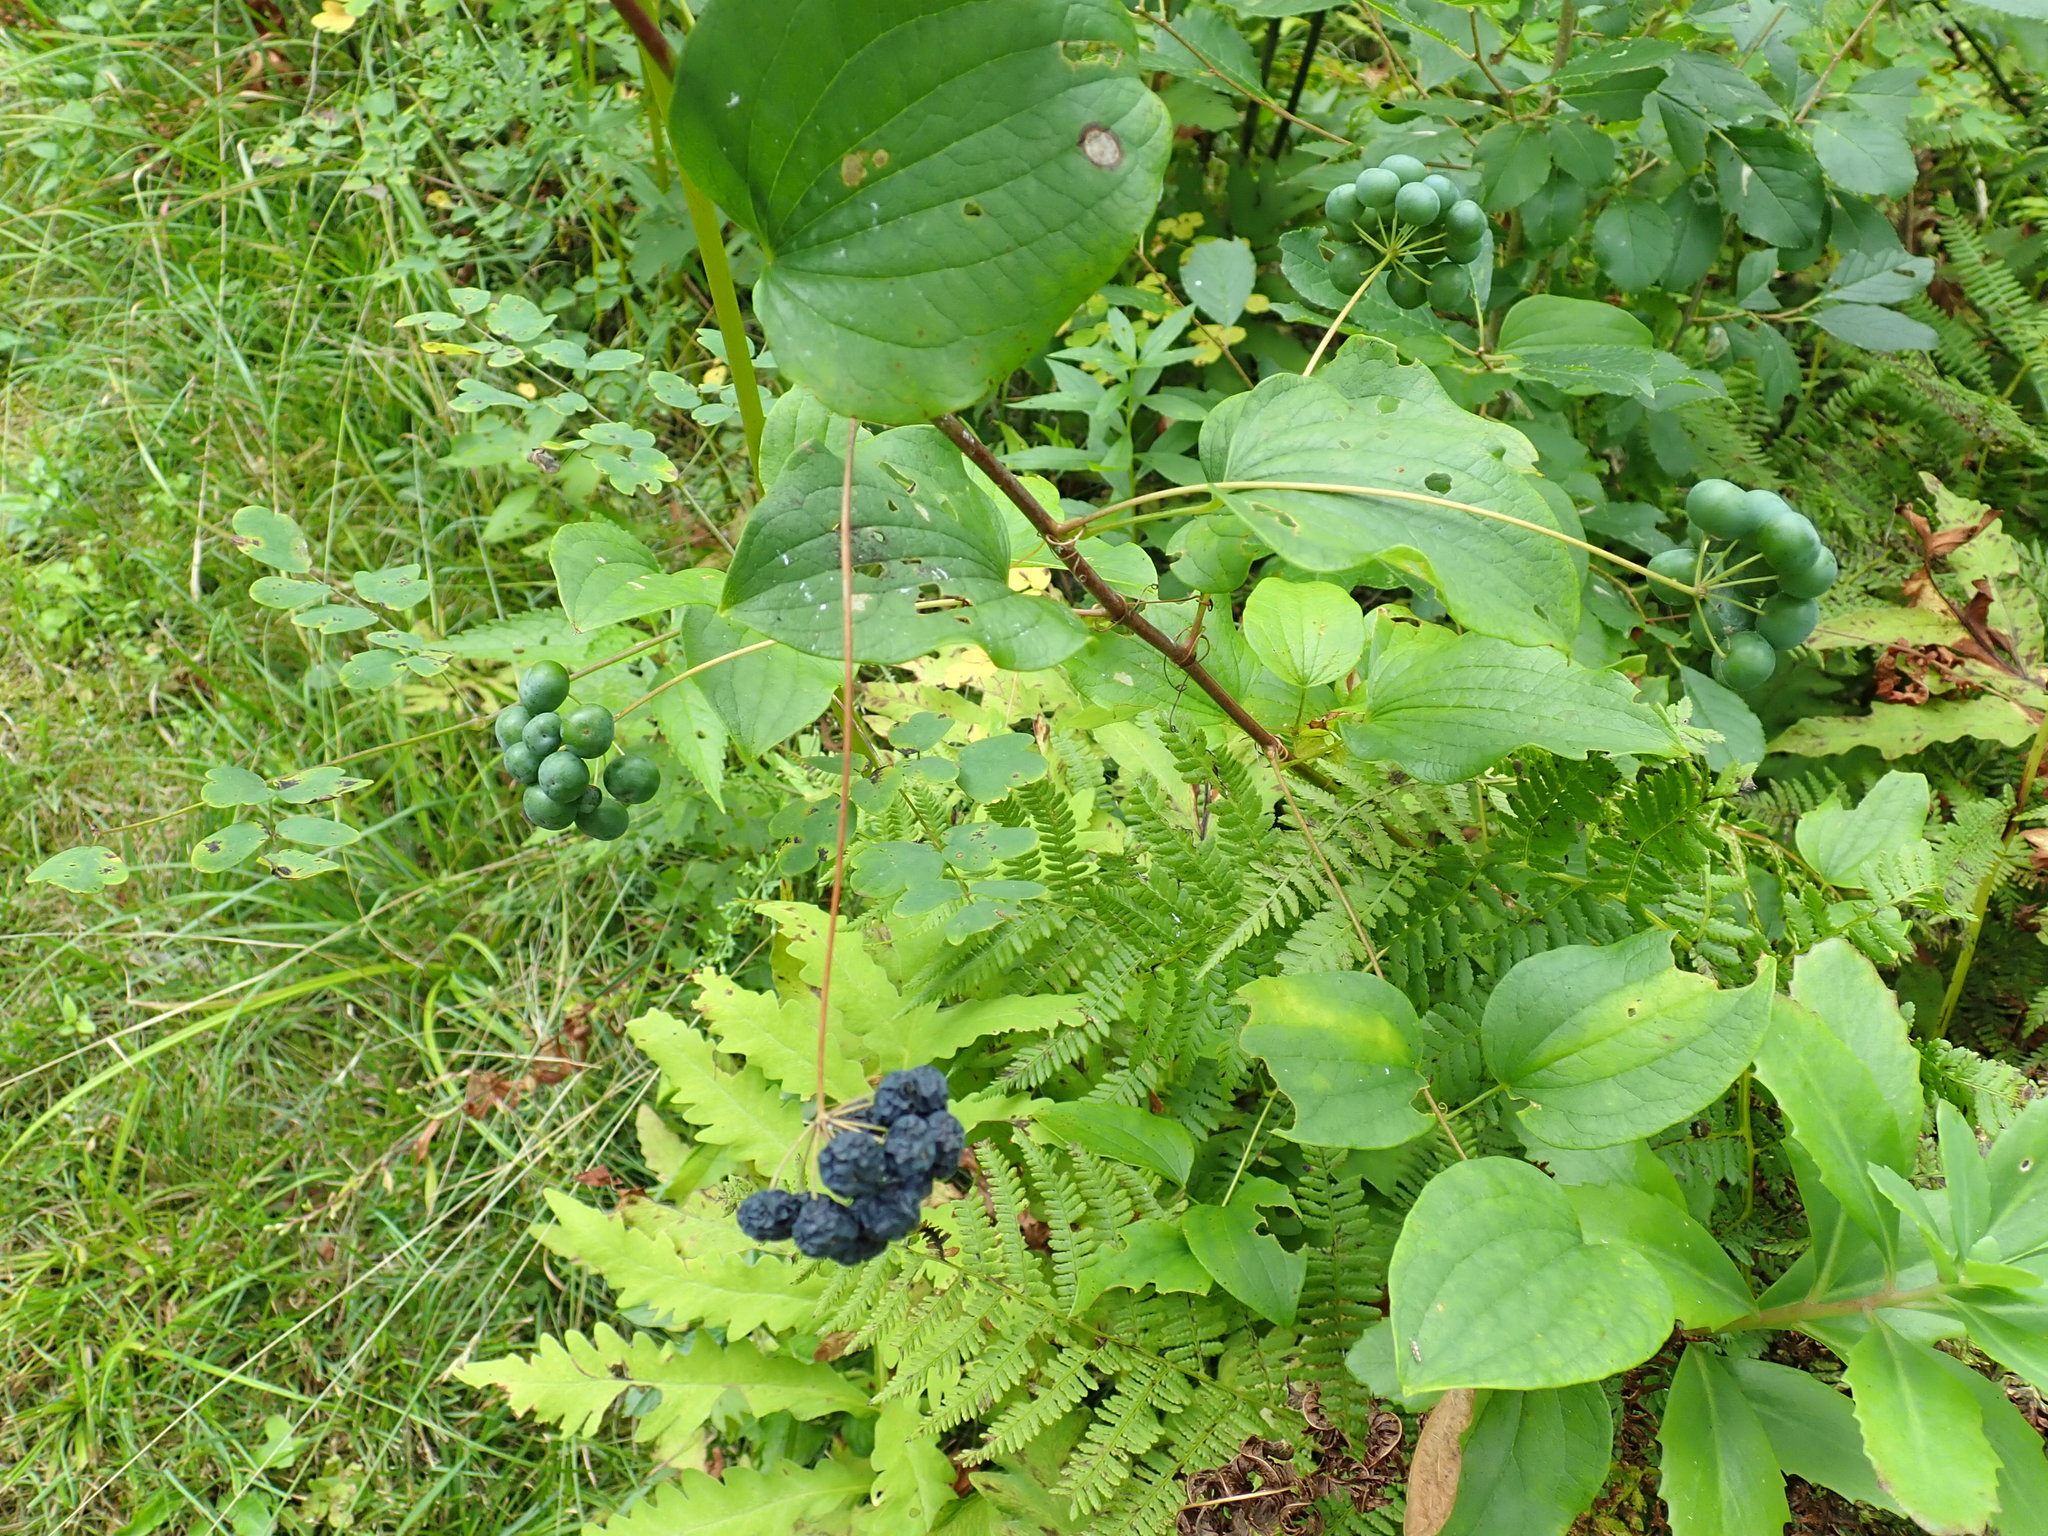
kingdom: Plantae
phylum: Tracheophyta
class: Liliopsida
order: Liliales
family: Smilacaceae
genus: Smilax
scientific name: Smilax herbacea
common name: Jacob's-ladder
